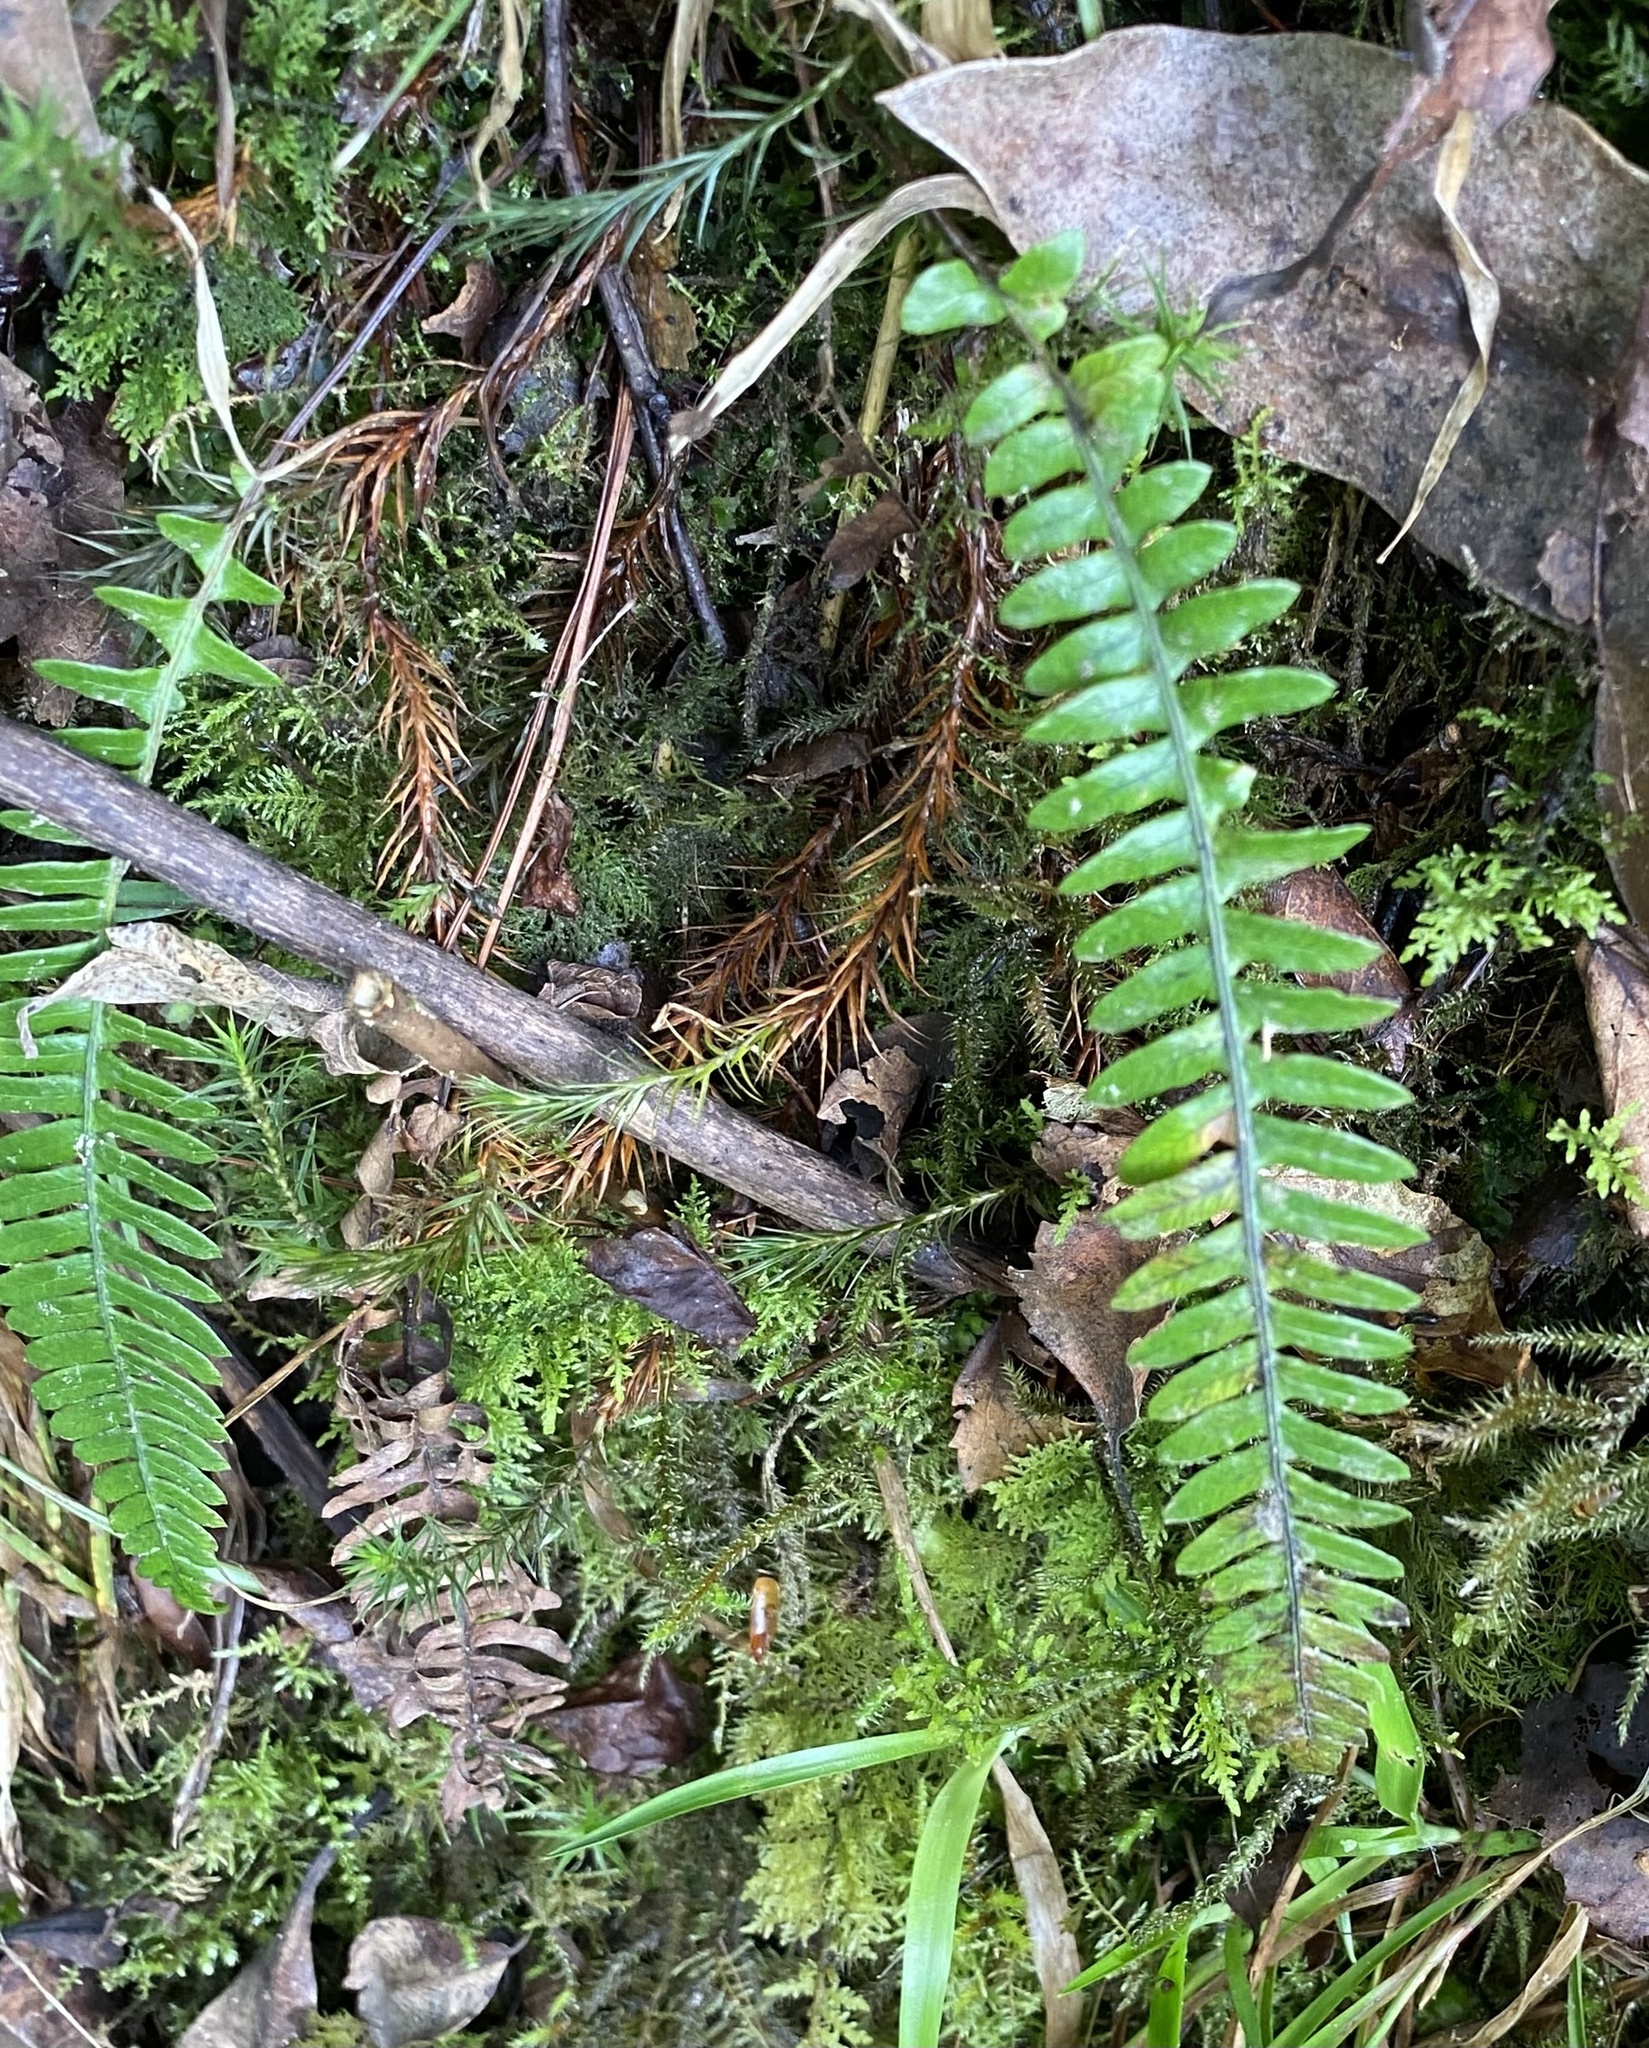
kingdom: Plantae
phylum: Tracheophyta
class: Polypodiopsida
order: Polypodiales
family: Blechnaceae
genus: Struthiopteris
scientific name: Struthiopteris spicant
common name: Deer fern
